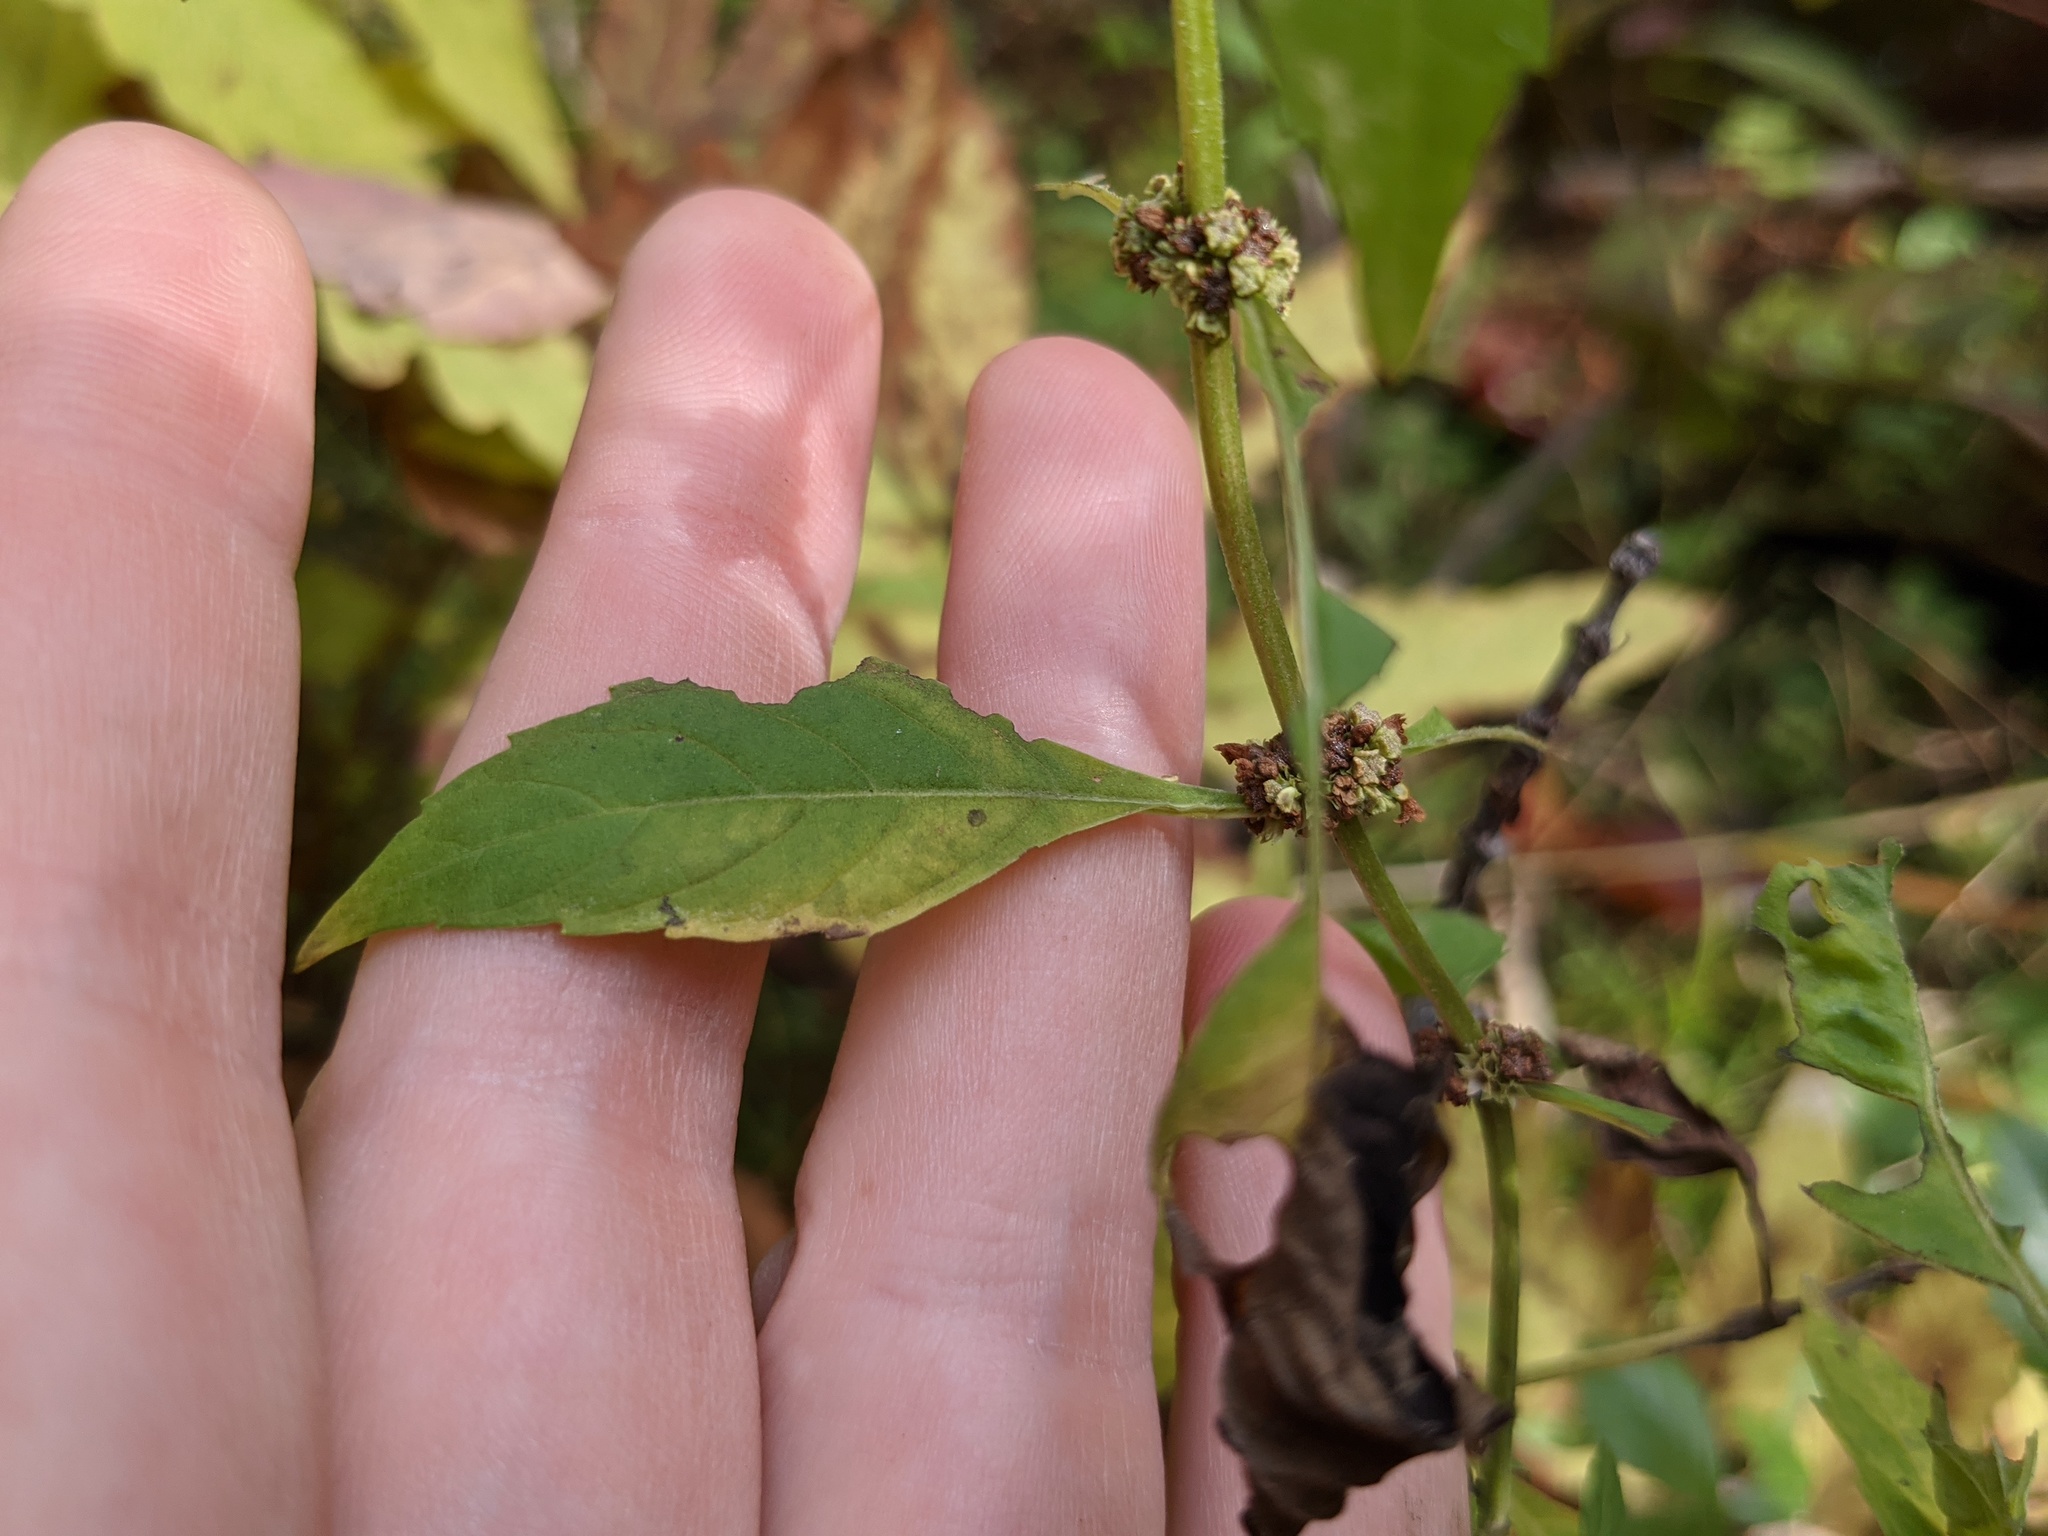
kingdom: Plantae
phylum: Tracheophyta
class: Magnoliopsida
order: Lamiales
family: Lamiaceae
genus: Lycopus
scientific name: Lycopus uniflorus
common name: Northern bugleweed
